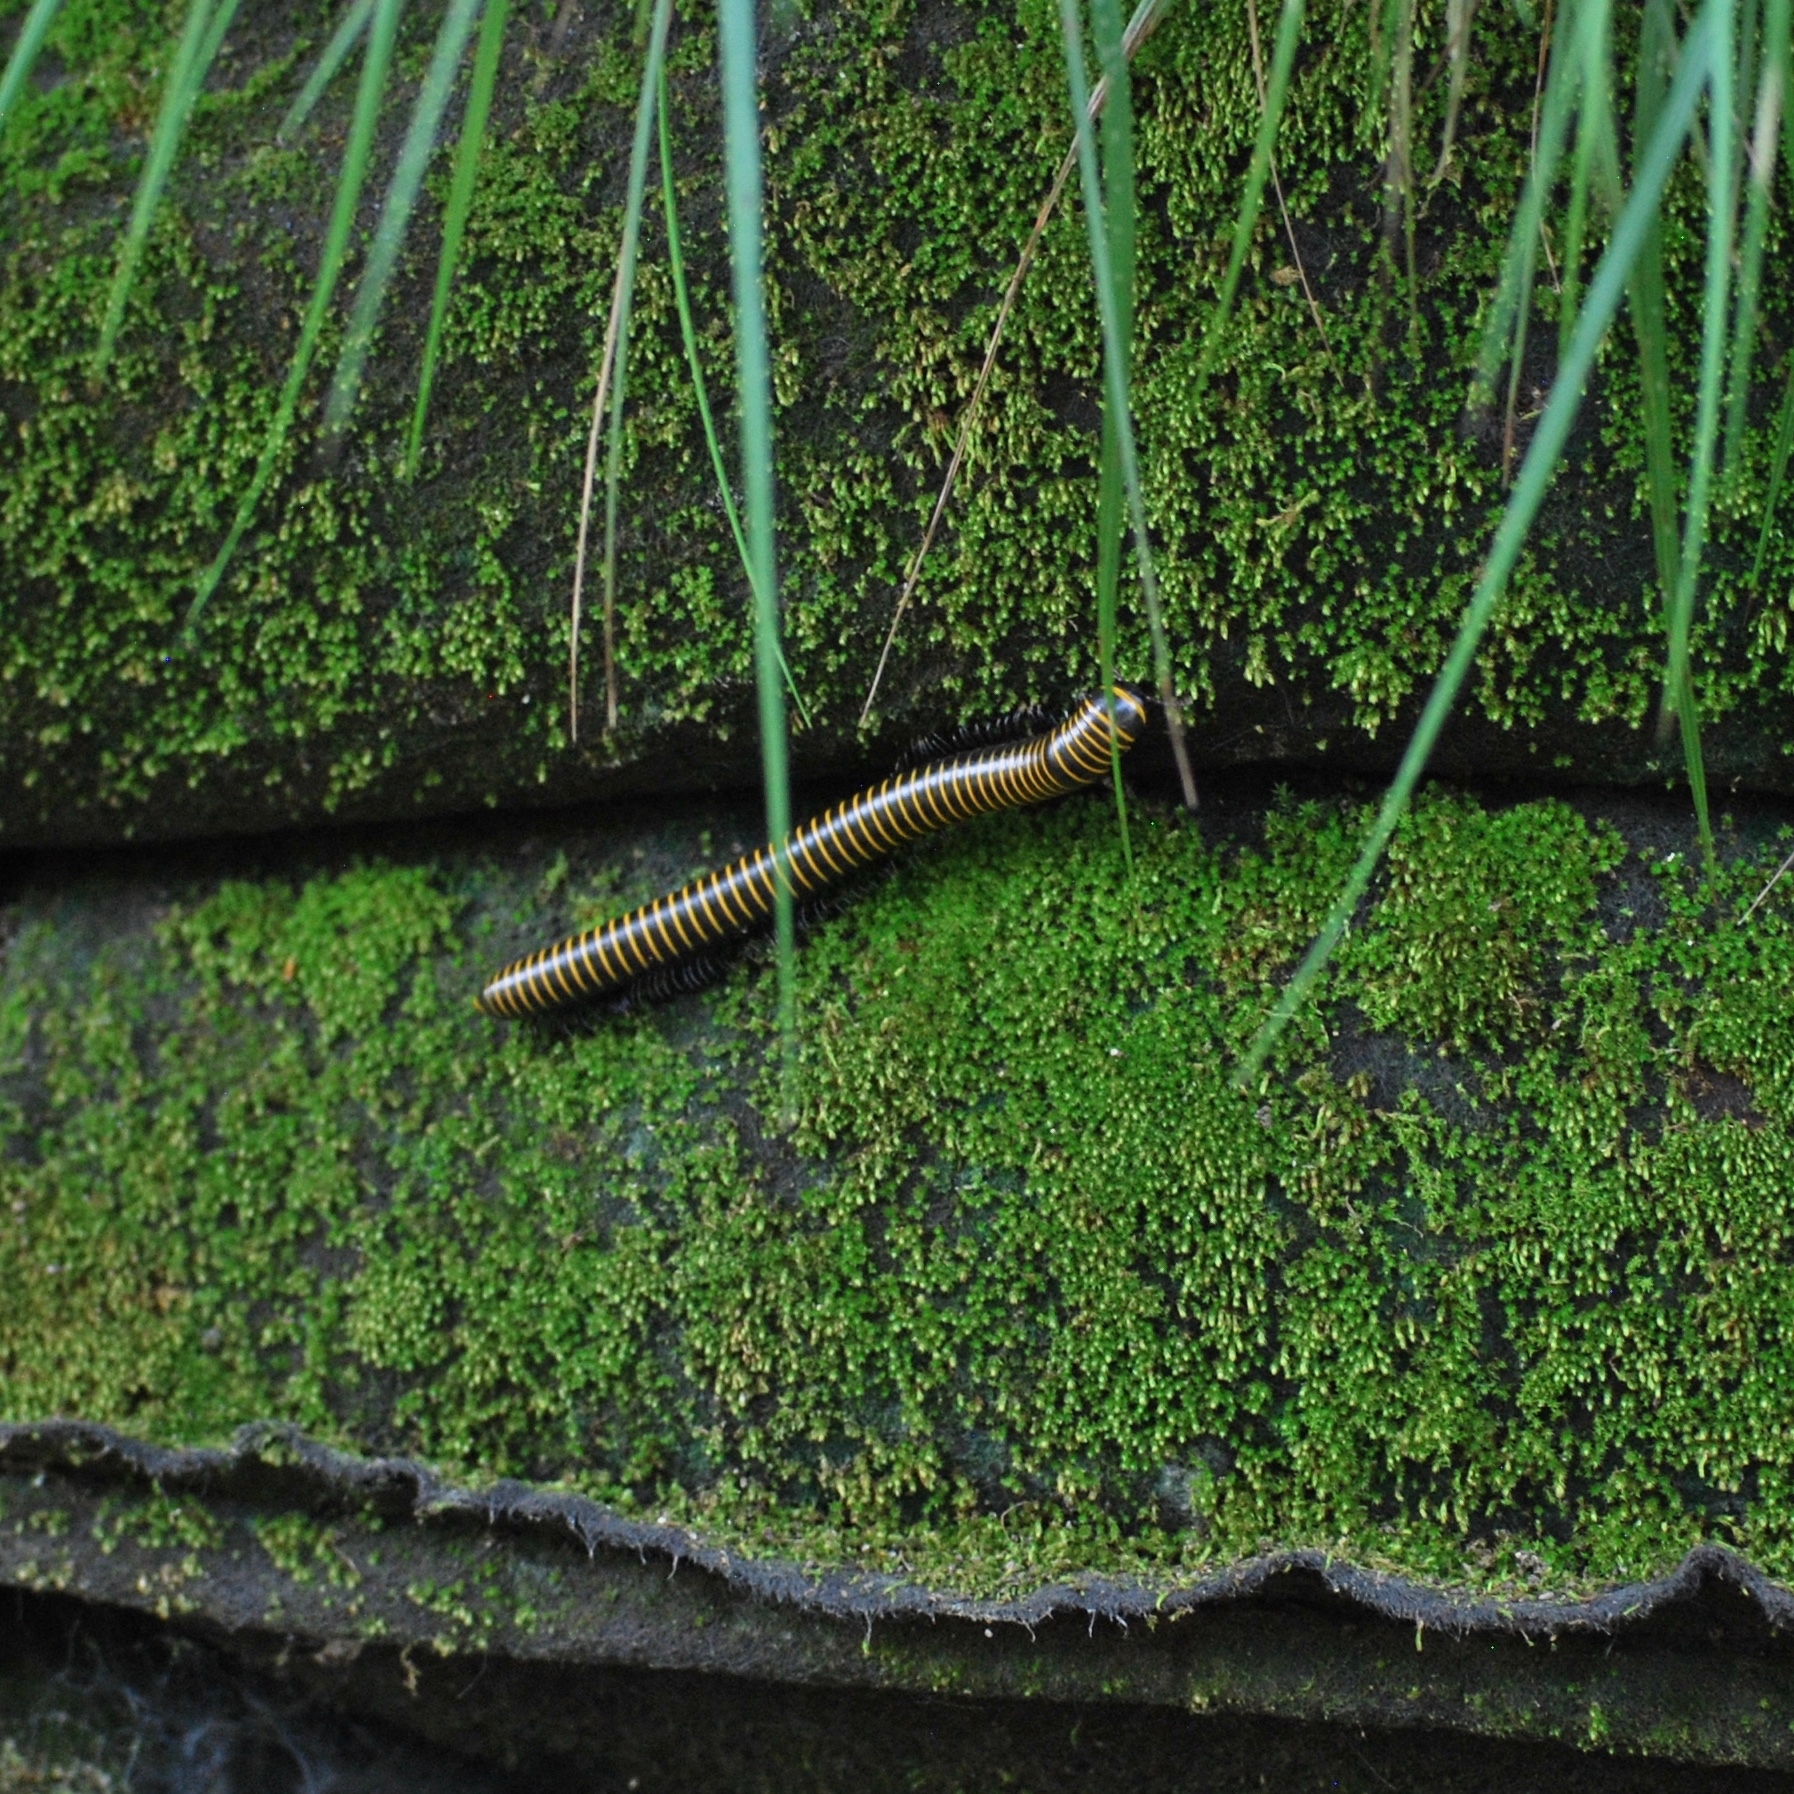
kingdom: Animalia
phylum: Arthropoda
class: Diplopoda
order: Spirobolida
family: Spirobolidae
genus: Spirobolus
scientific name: Spirobolus bungii
